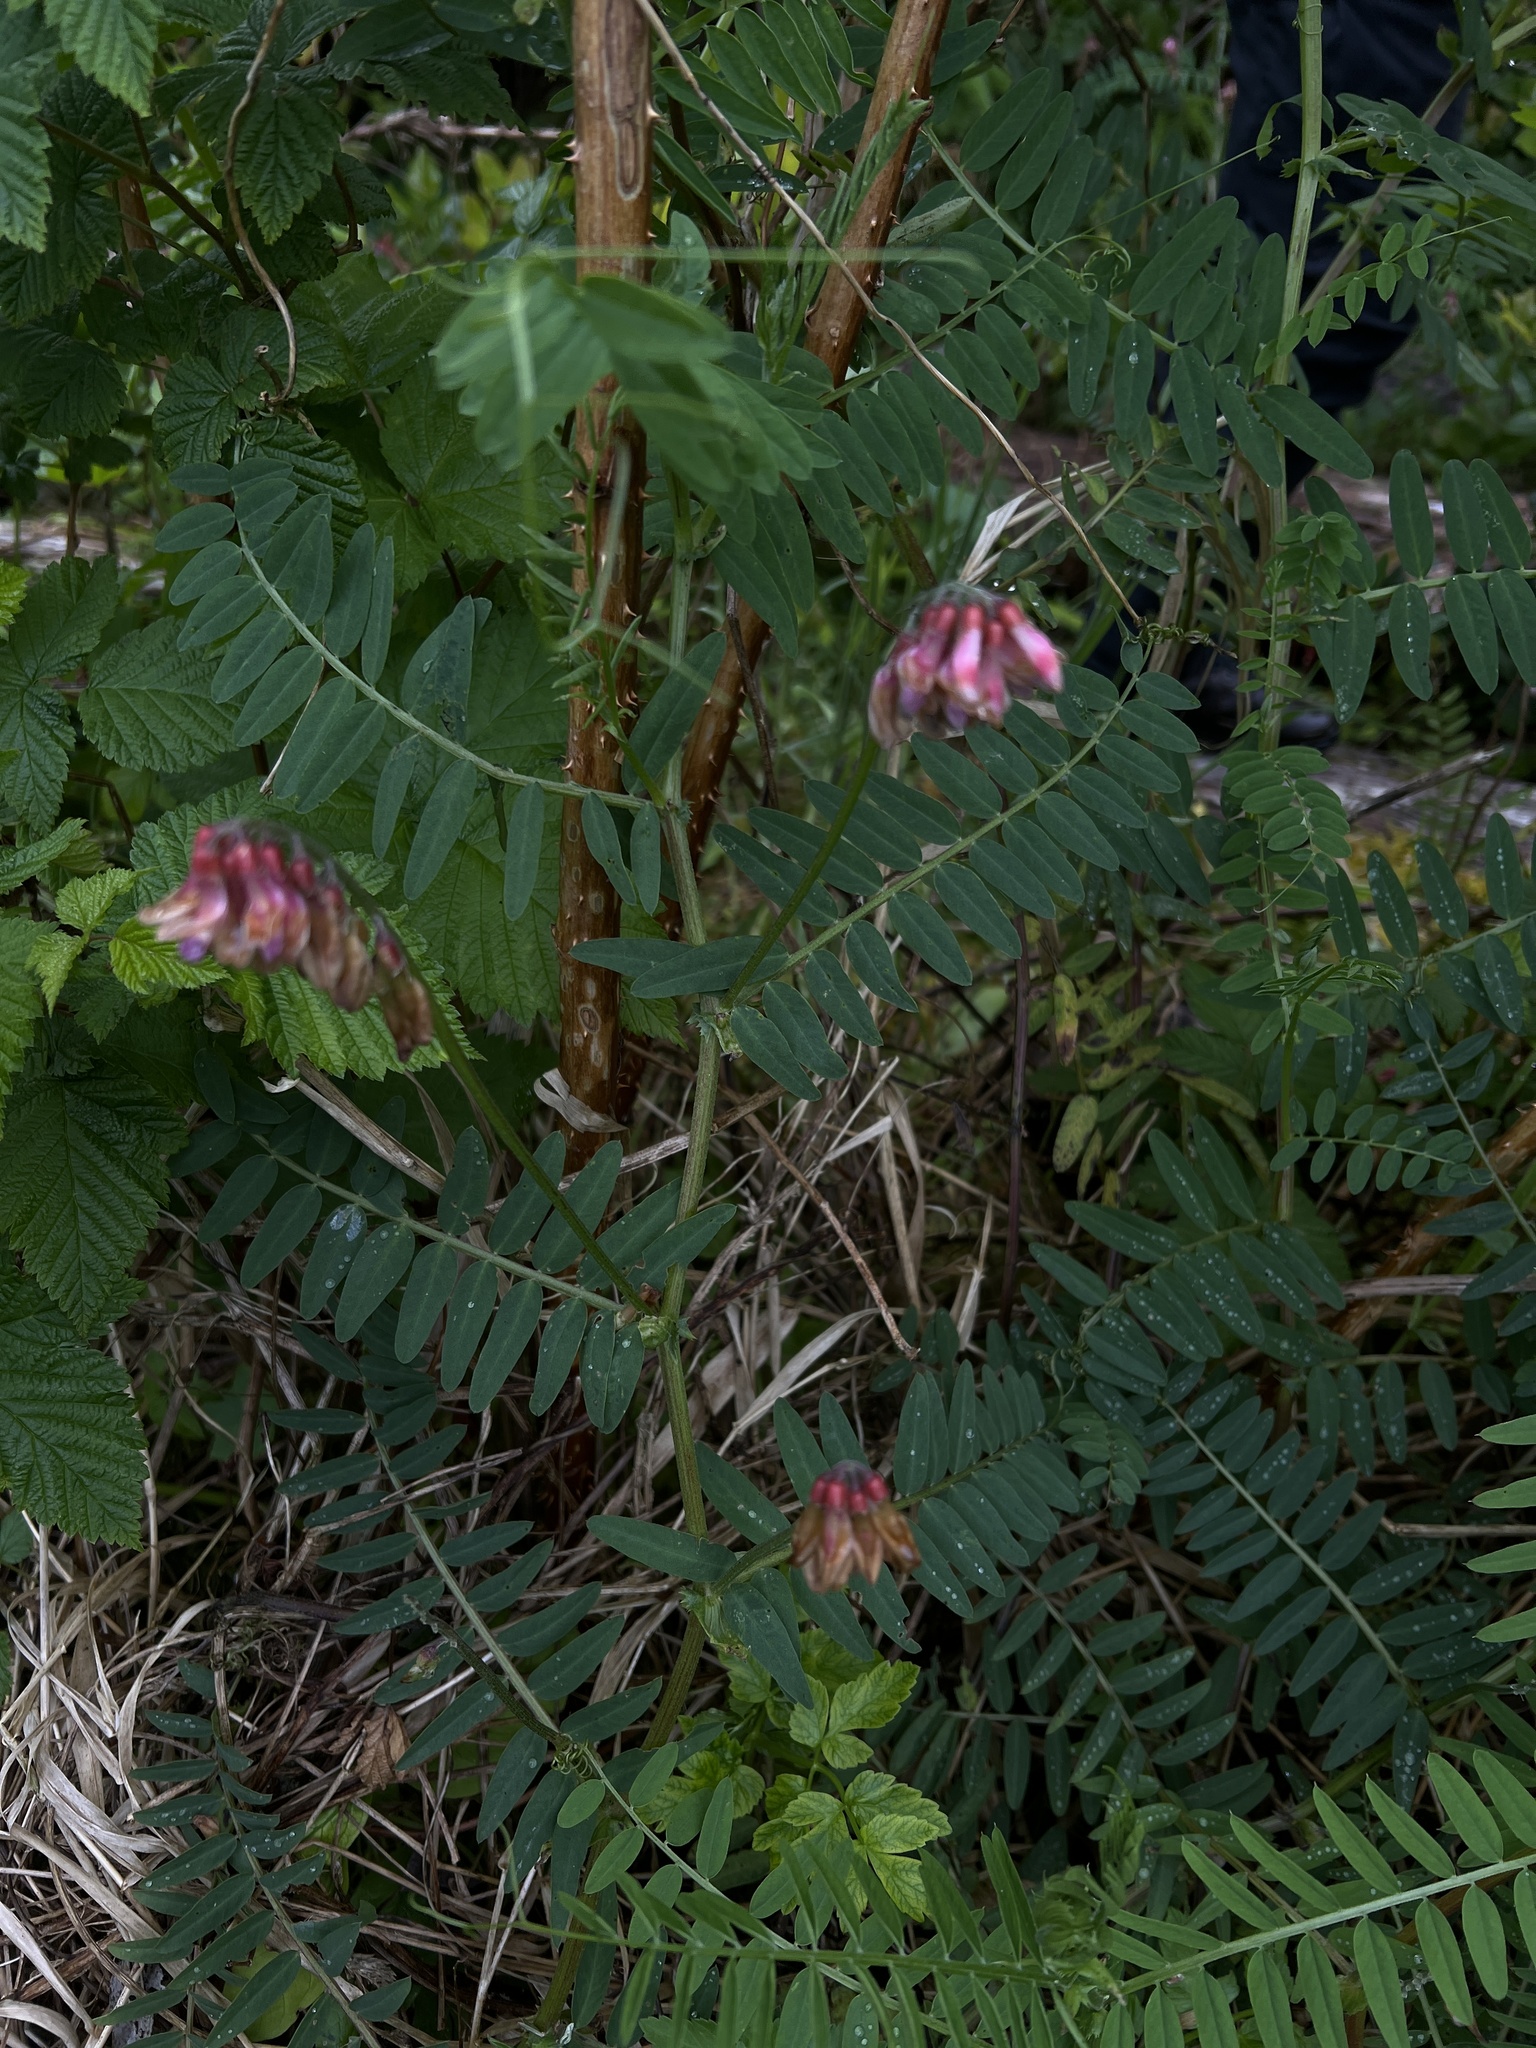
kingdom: Plantae
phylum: Tracheophyta
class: Magnoliopsida
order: Fabales
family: Fabaceae
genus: Vicia
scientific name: Vicia
